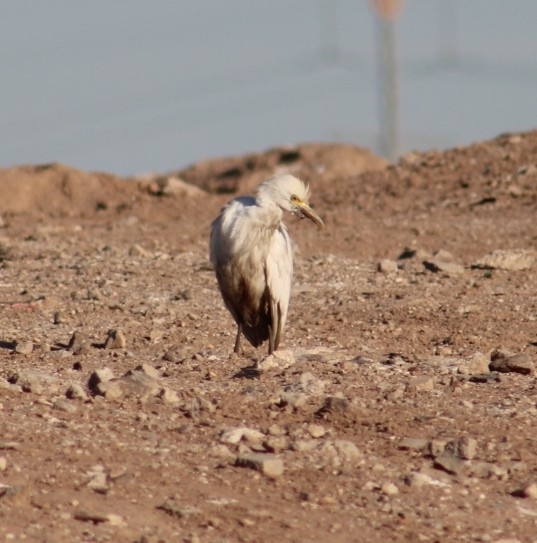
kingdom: Animalia
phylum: Chordata
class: Aves
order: Pelecaniformes
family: Ardeidae
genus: Bubulcus
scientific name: Bubulcus ibis
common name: Cattle egret
